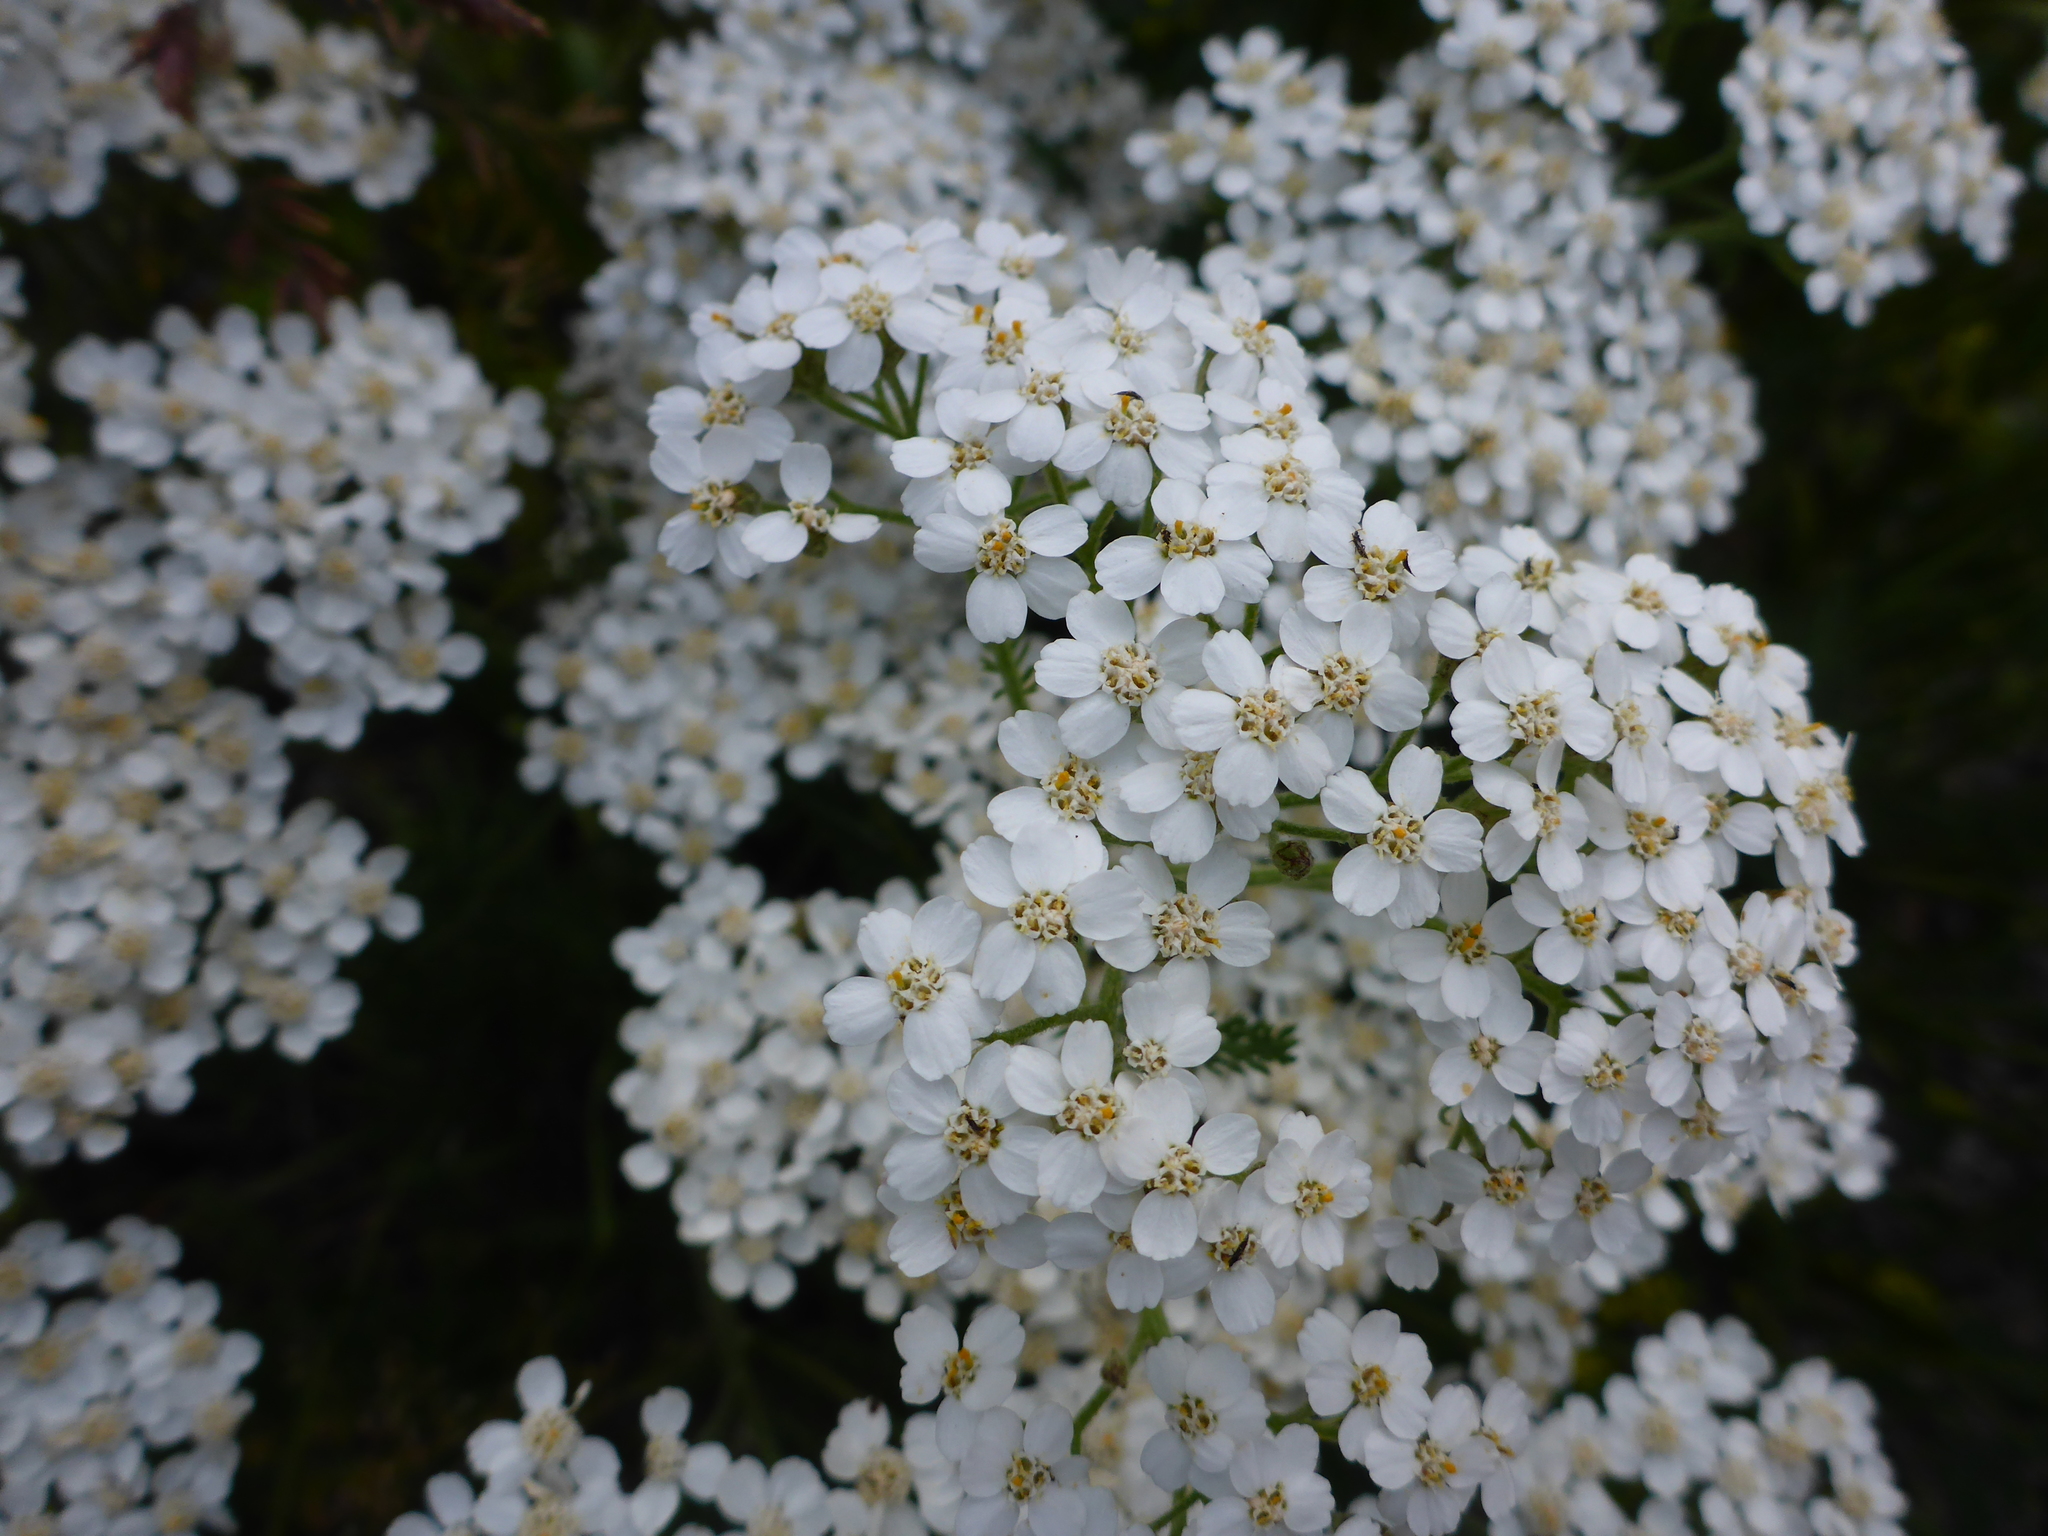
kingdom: Plantae
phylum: Tracheophyta
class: Magnoliopsida
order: Asterales
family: Asteraceae
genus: Achillea
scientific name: Achillea millefolium
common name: Yarrow
